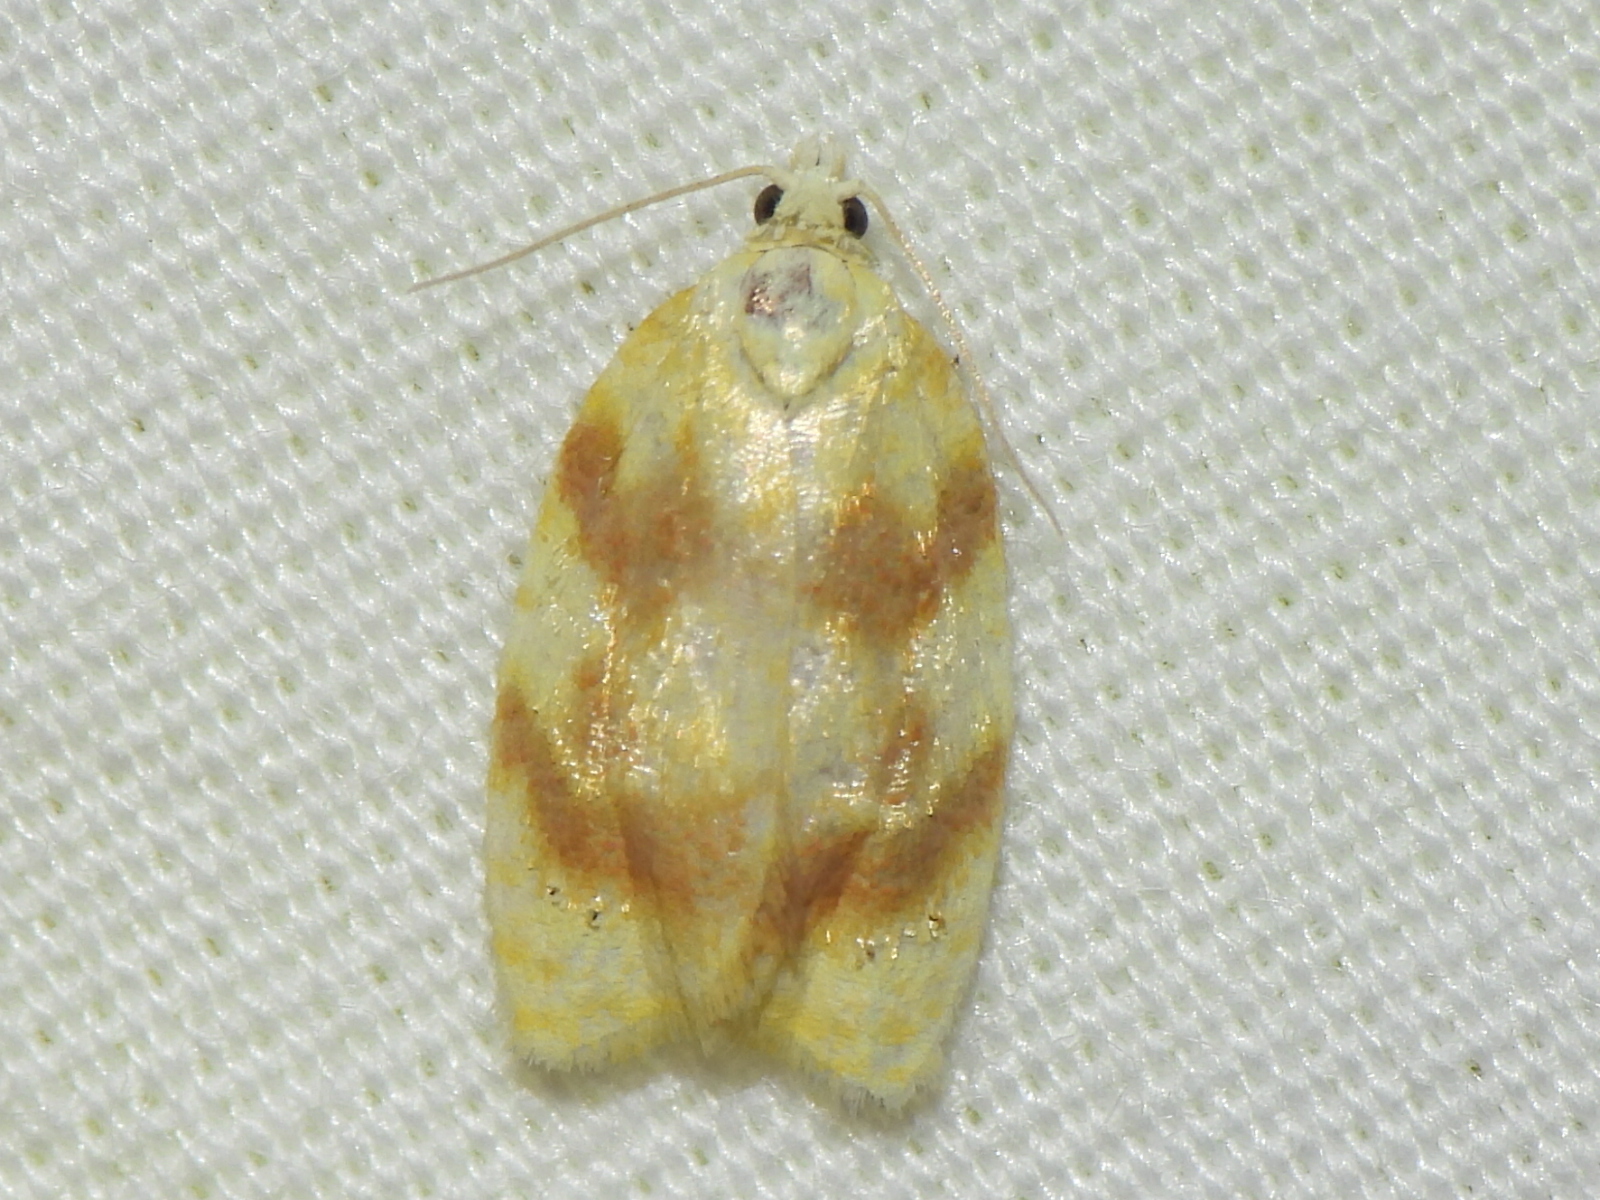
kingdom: Animalia
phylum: Arthropoda
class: Insecta
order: Lepidoptera
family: Tortricidae
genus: Acleris
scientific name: Acleris semipurpurana
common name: Oak leaftier moth
